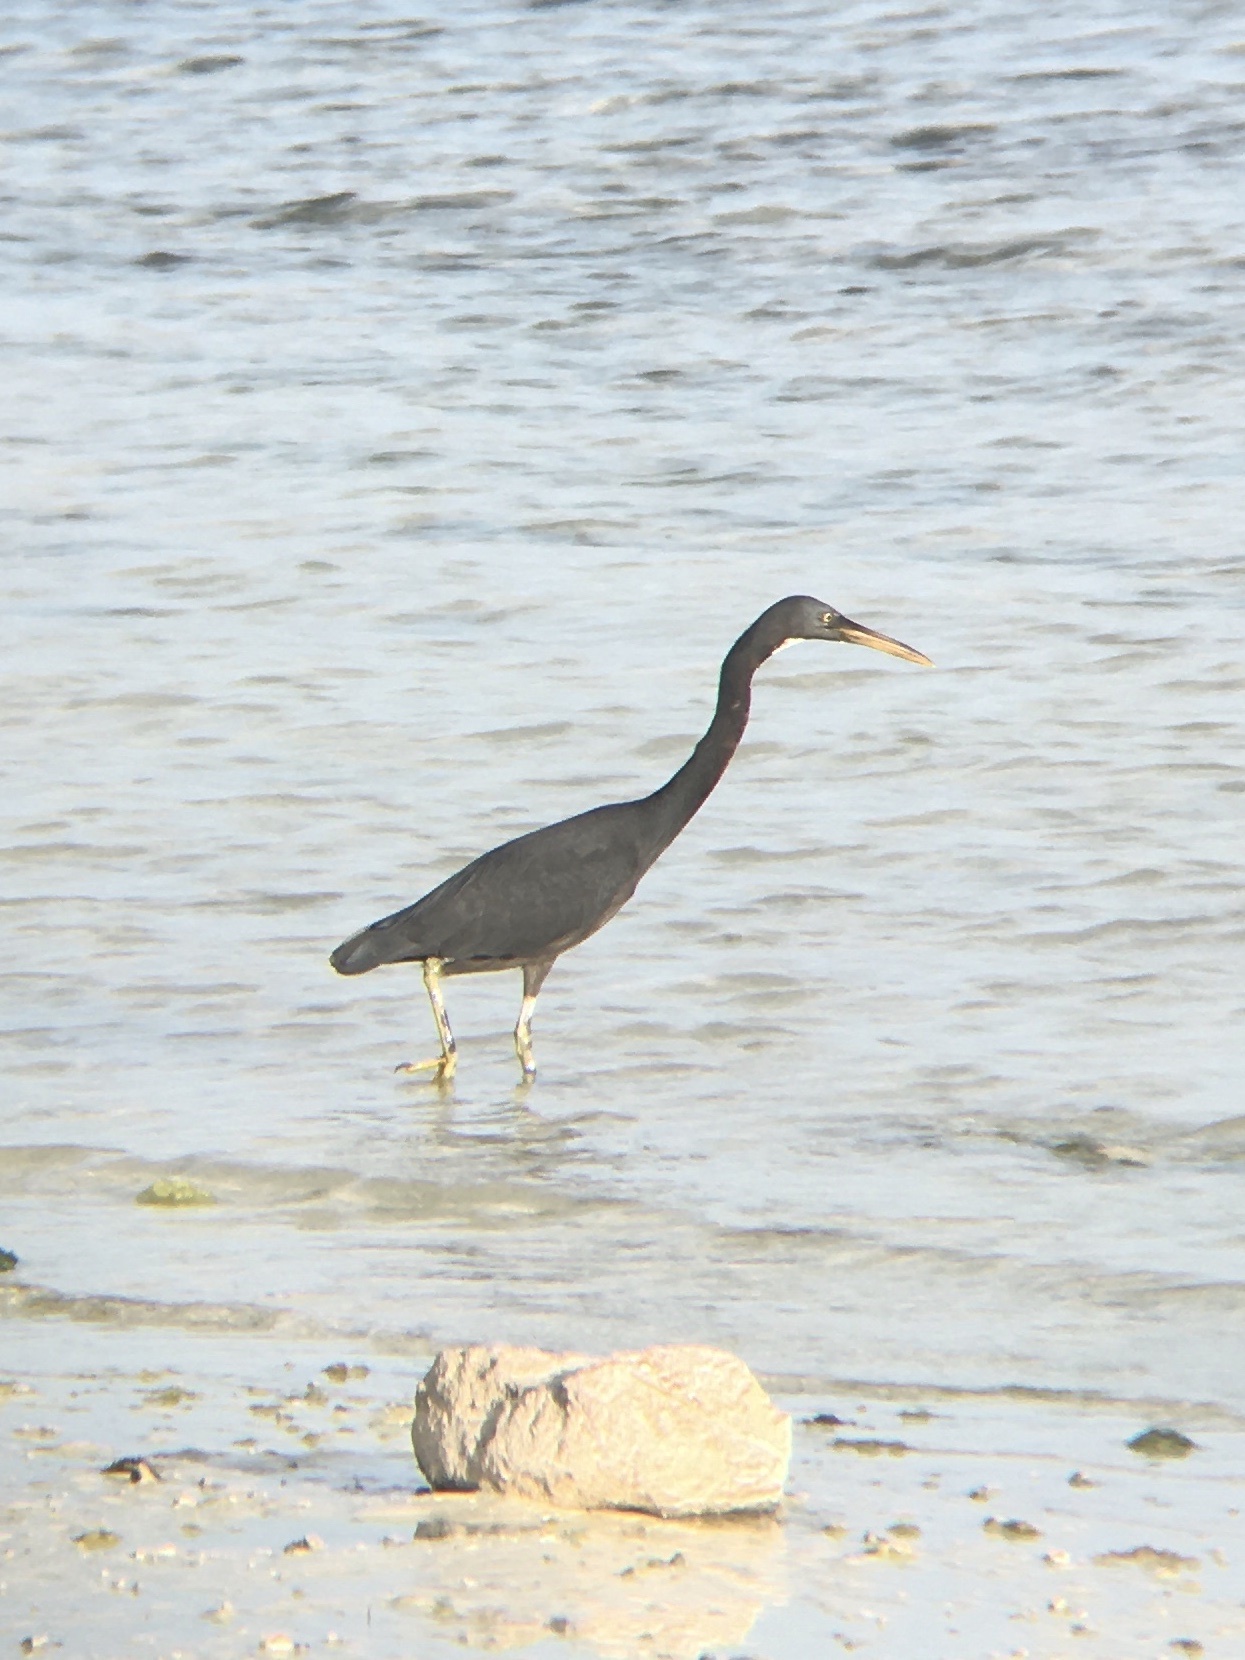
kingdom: Animalia
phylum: Chordata
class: Aves
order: Pelecaniformes
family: Ardeidae
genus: Egretta
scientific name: Egretta sacra
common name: Pacific reef heron
